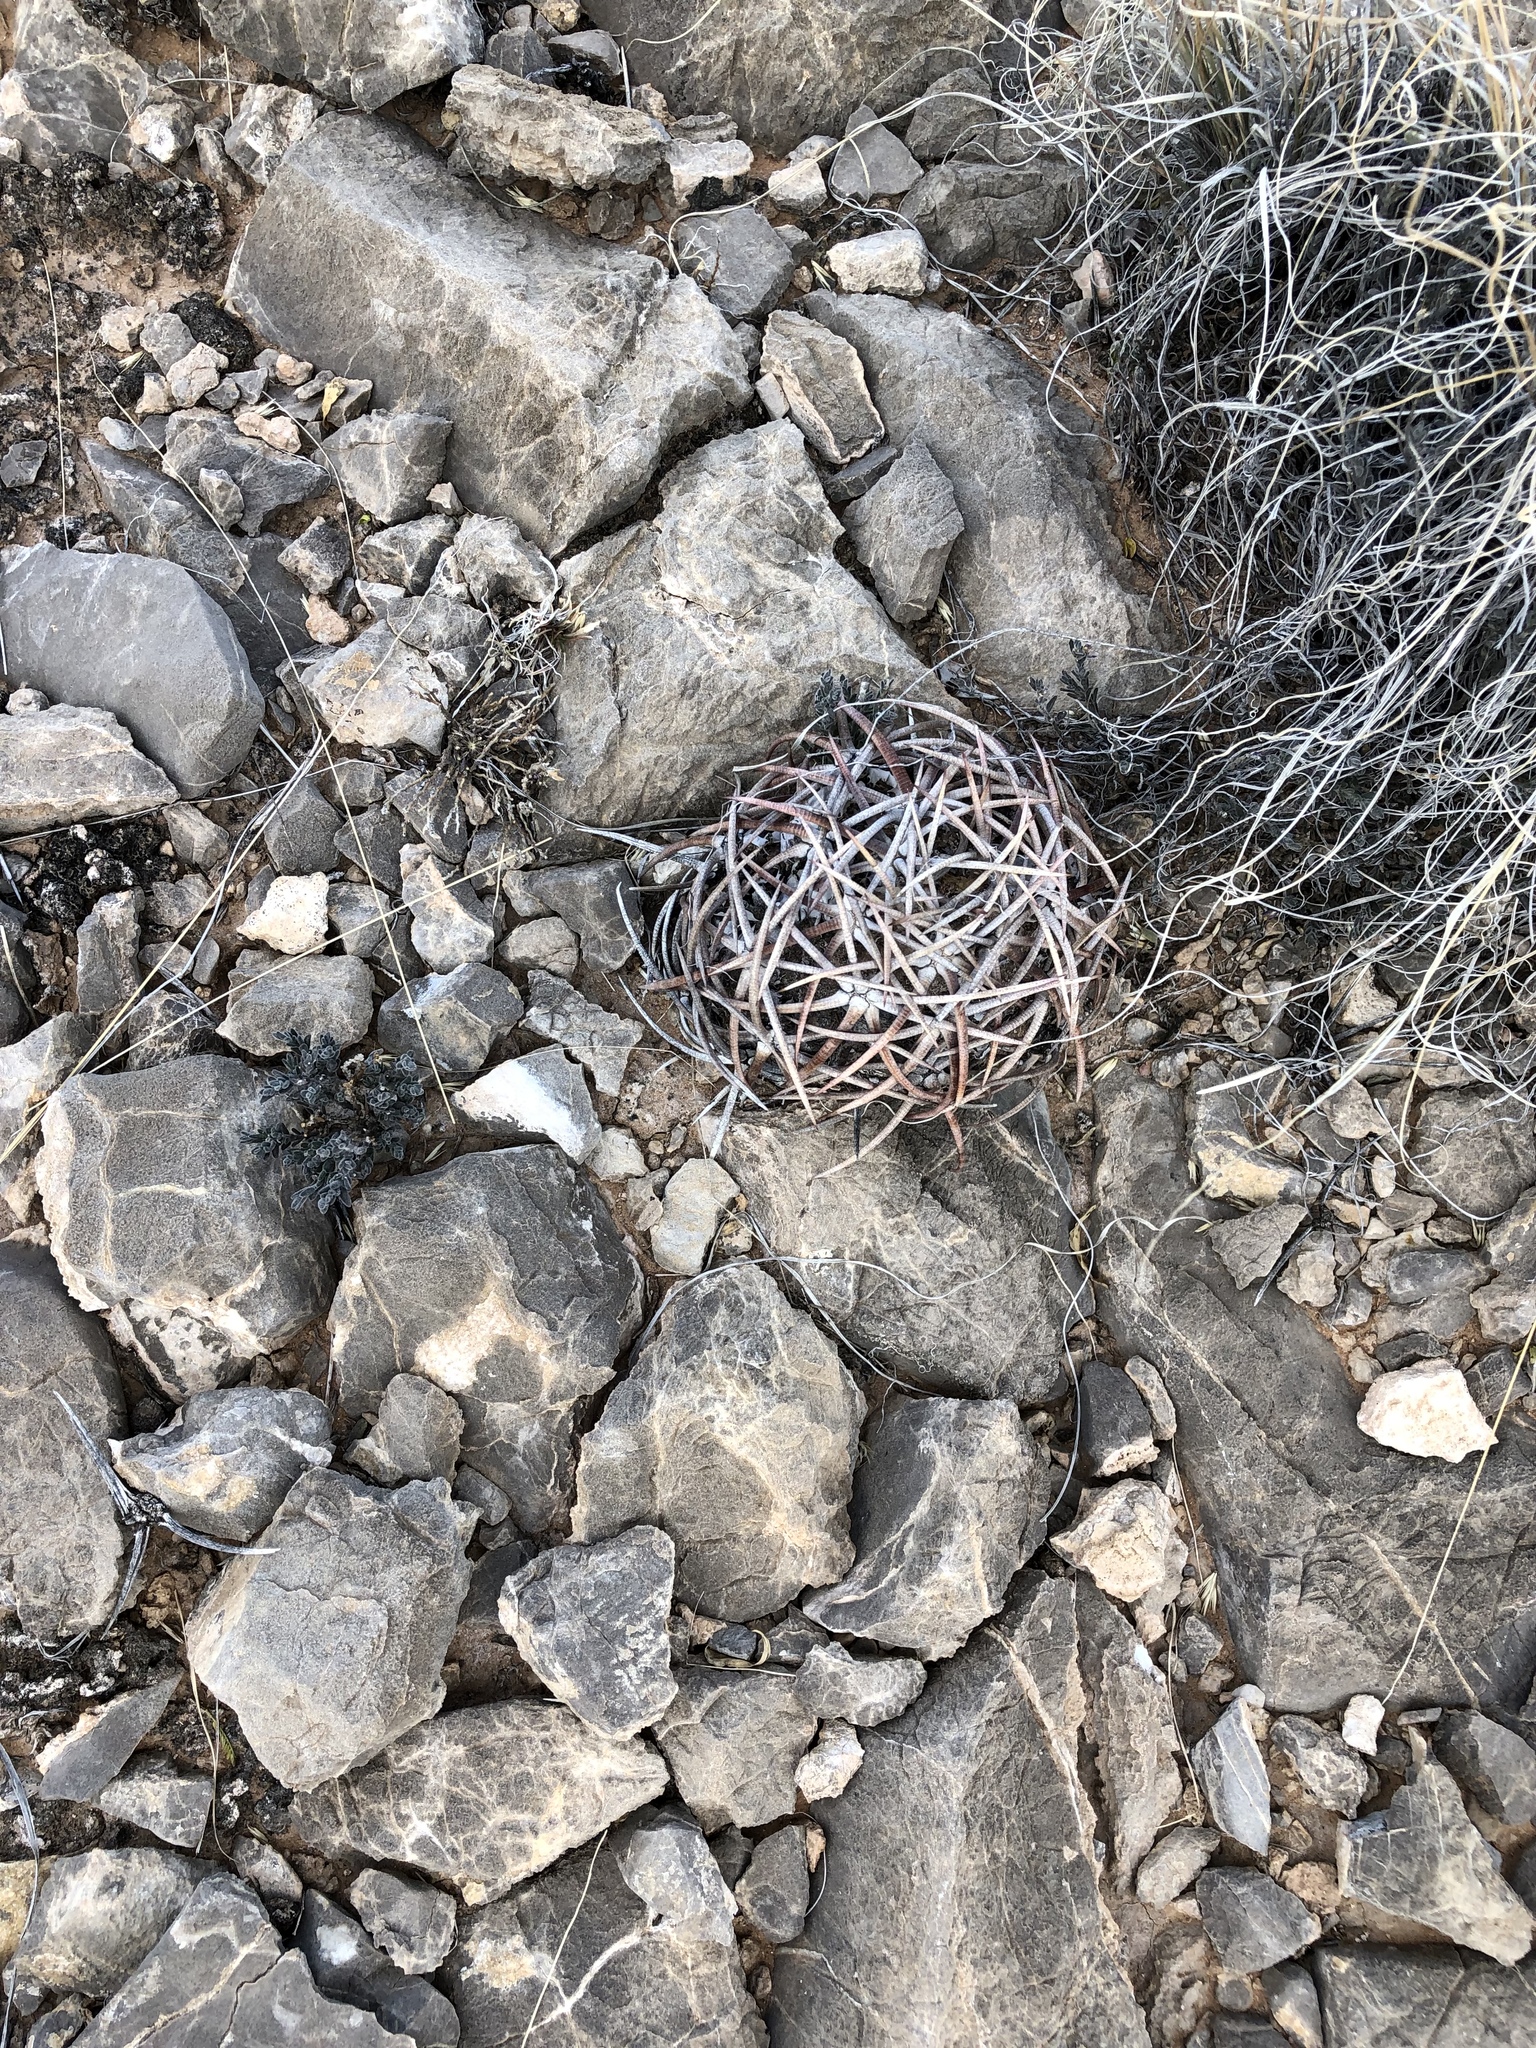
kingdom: Plantae
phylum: Tracheophyta
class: Magnoliopsida
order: Caryophyllales
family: Cactaceae
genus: Echinocactus
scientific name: Echinocactus horizonthalonius
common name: Devilshead
